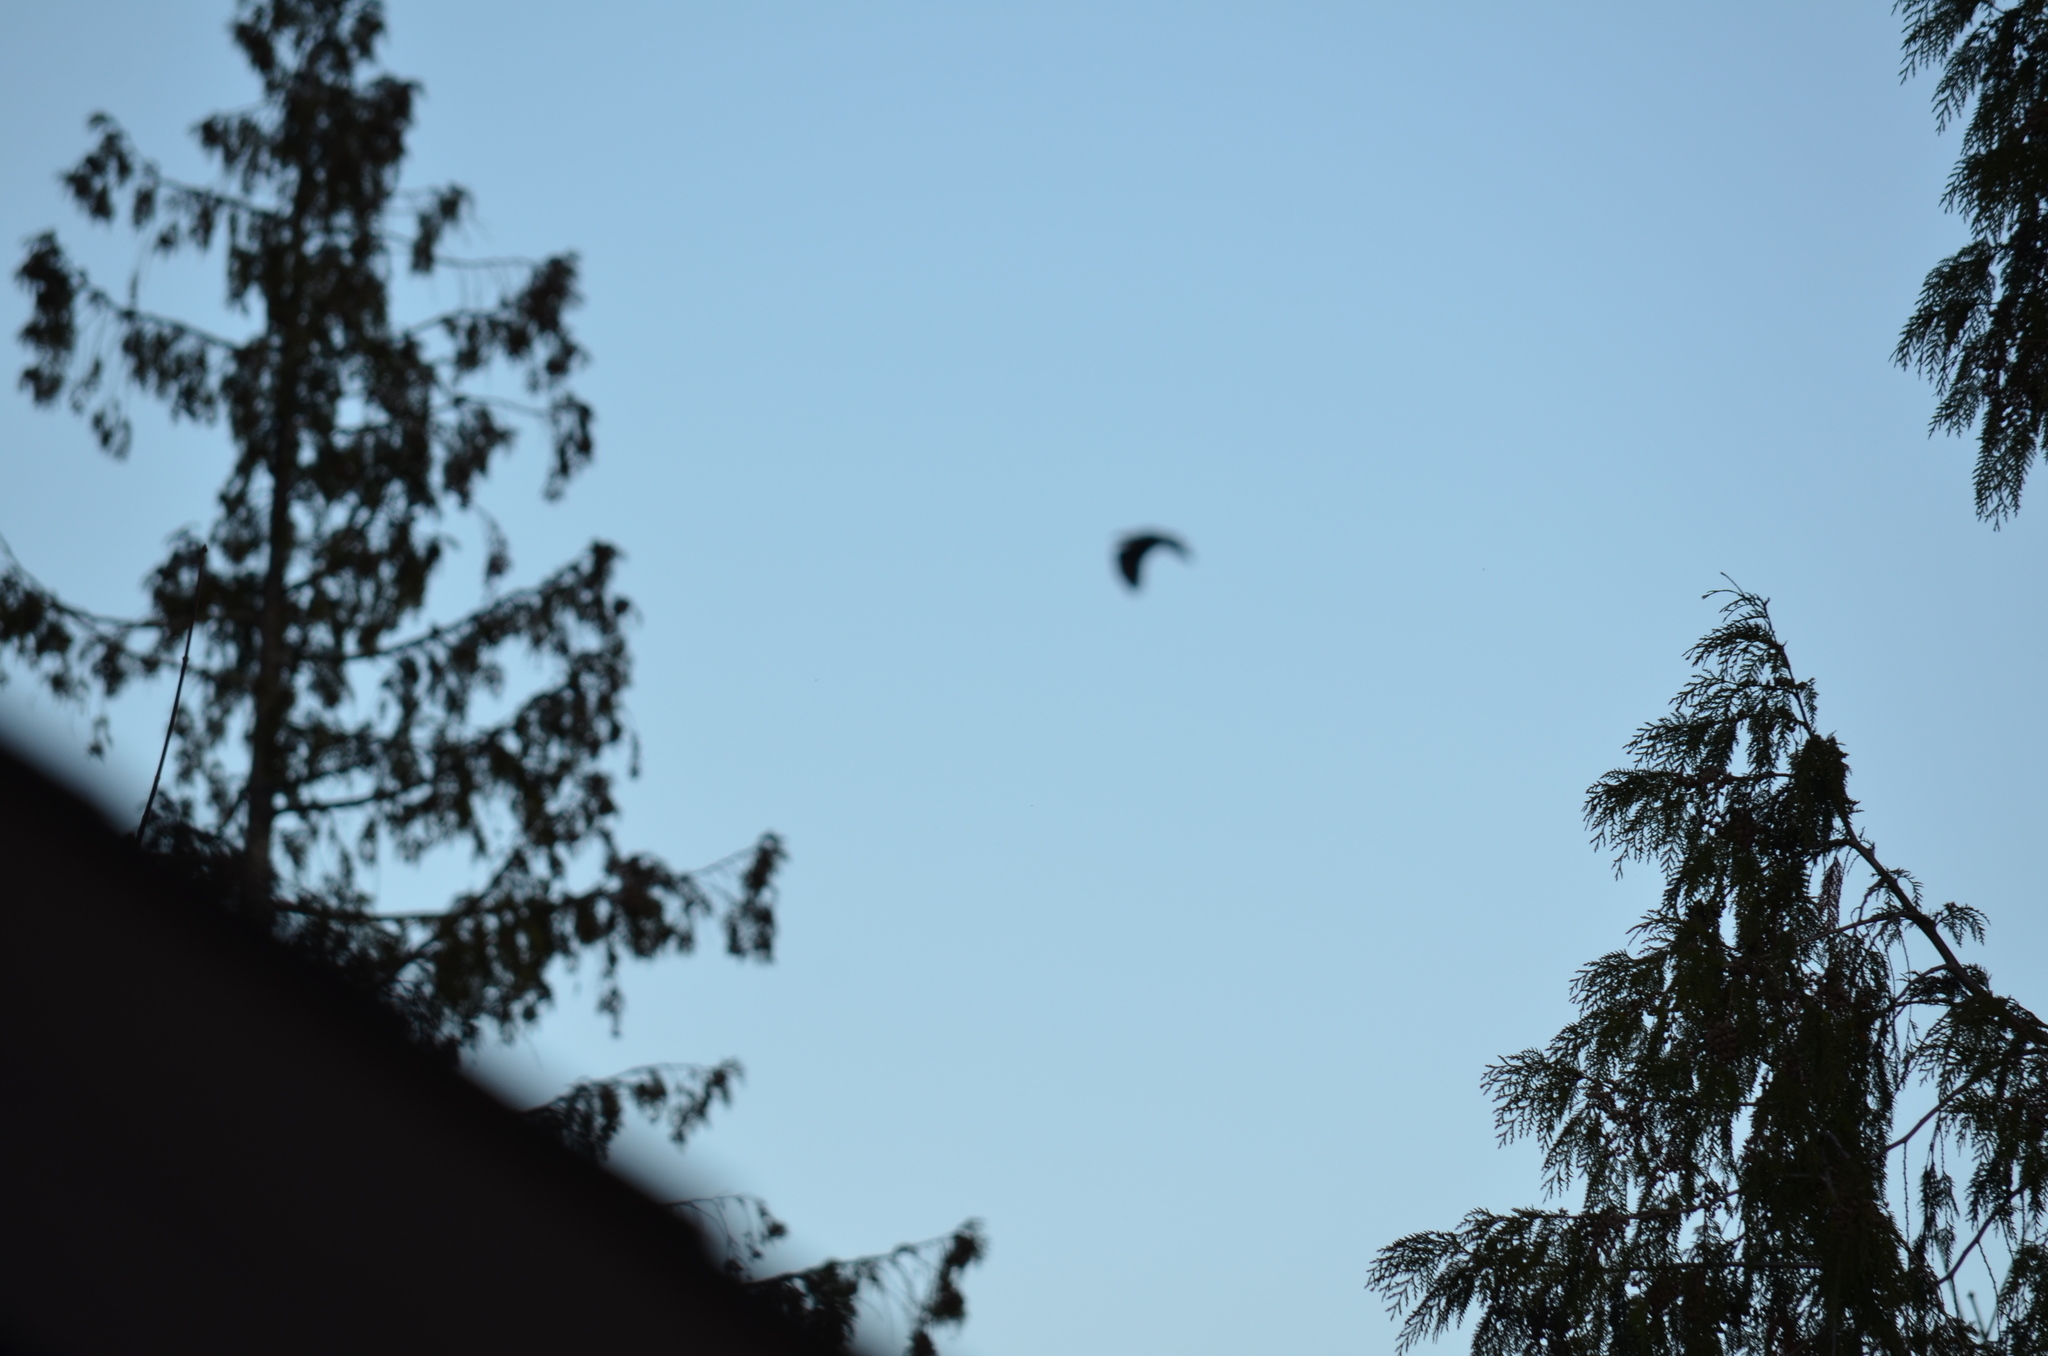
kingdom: Animalia
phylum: Chordata
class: Aves
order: Accipitriformes
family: Accipitridae
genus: Haliaeetus
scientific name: Haliaeetus leucocephalus
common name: Bald eagle
